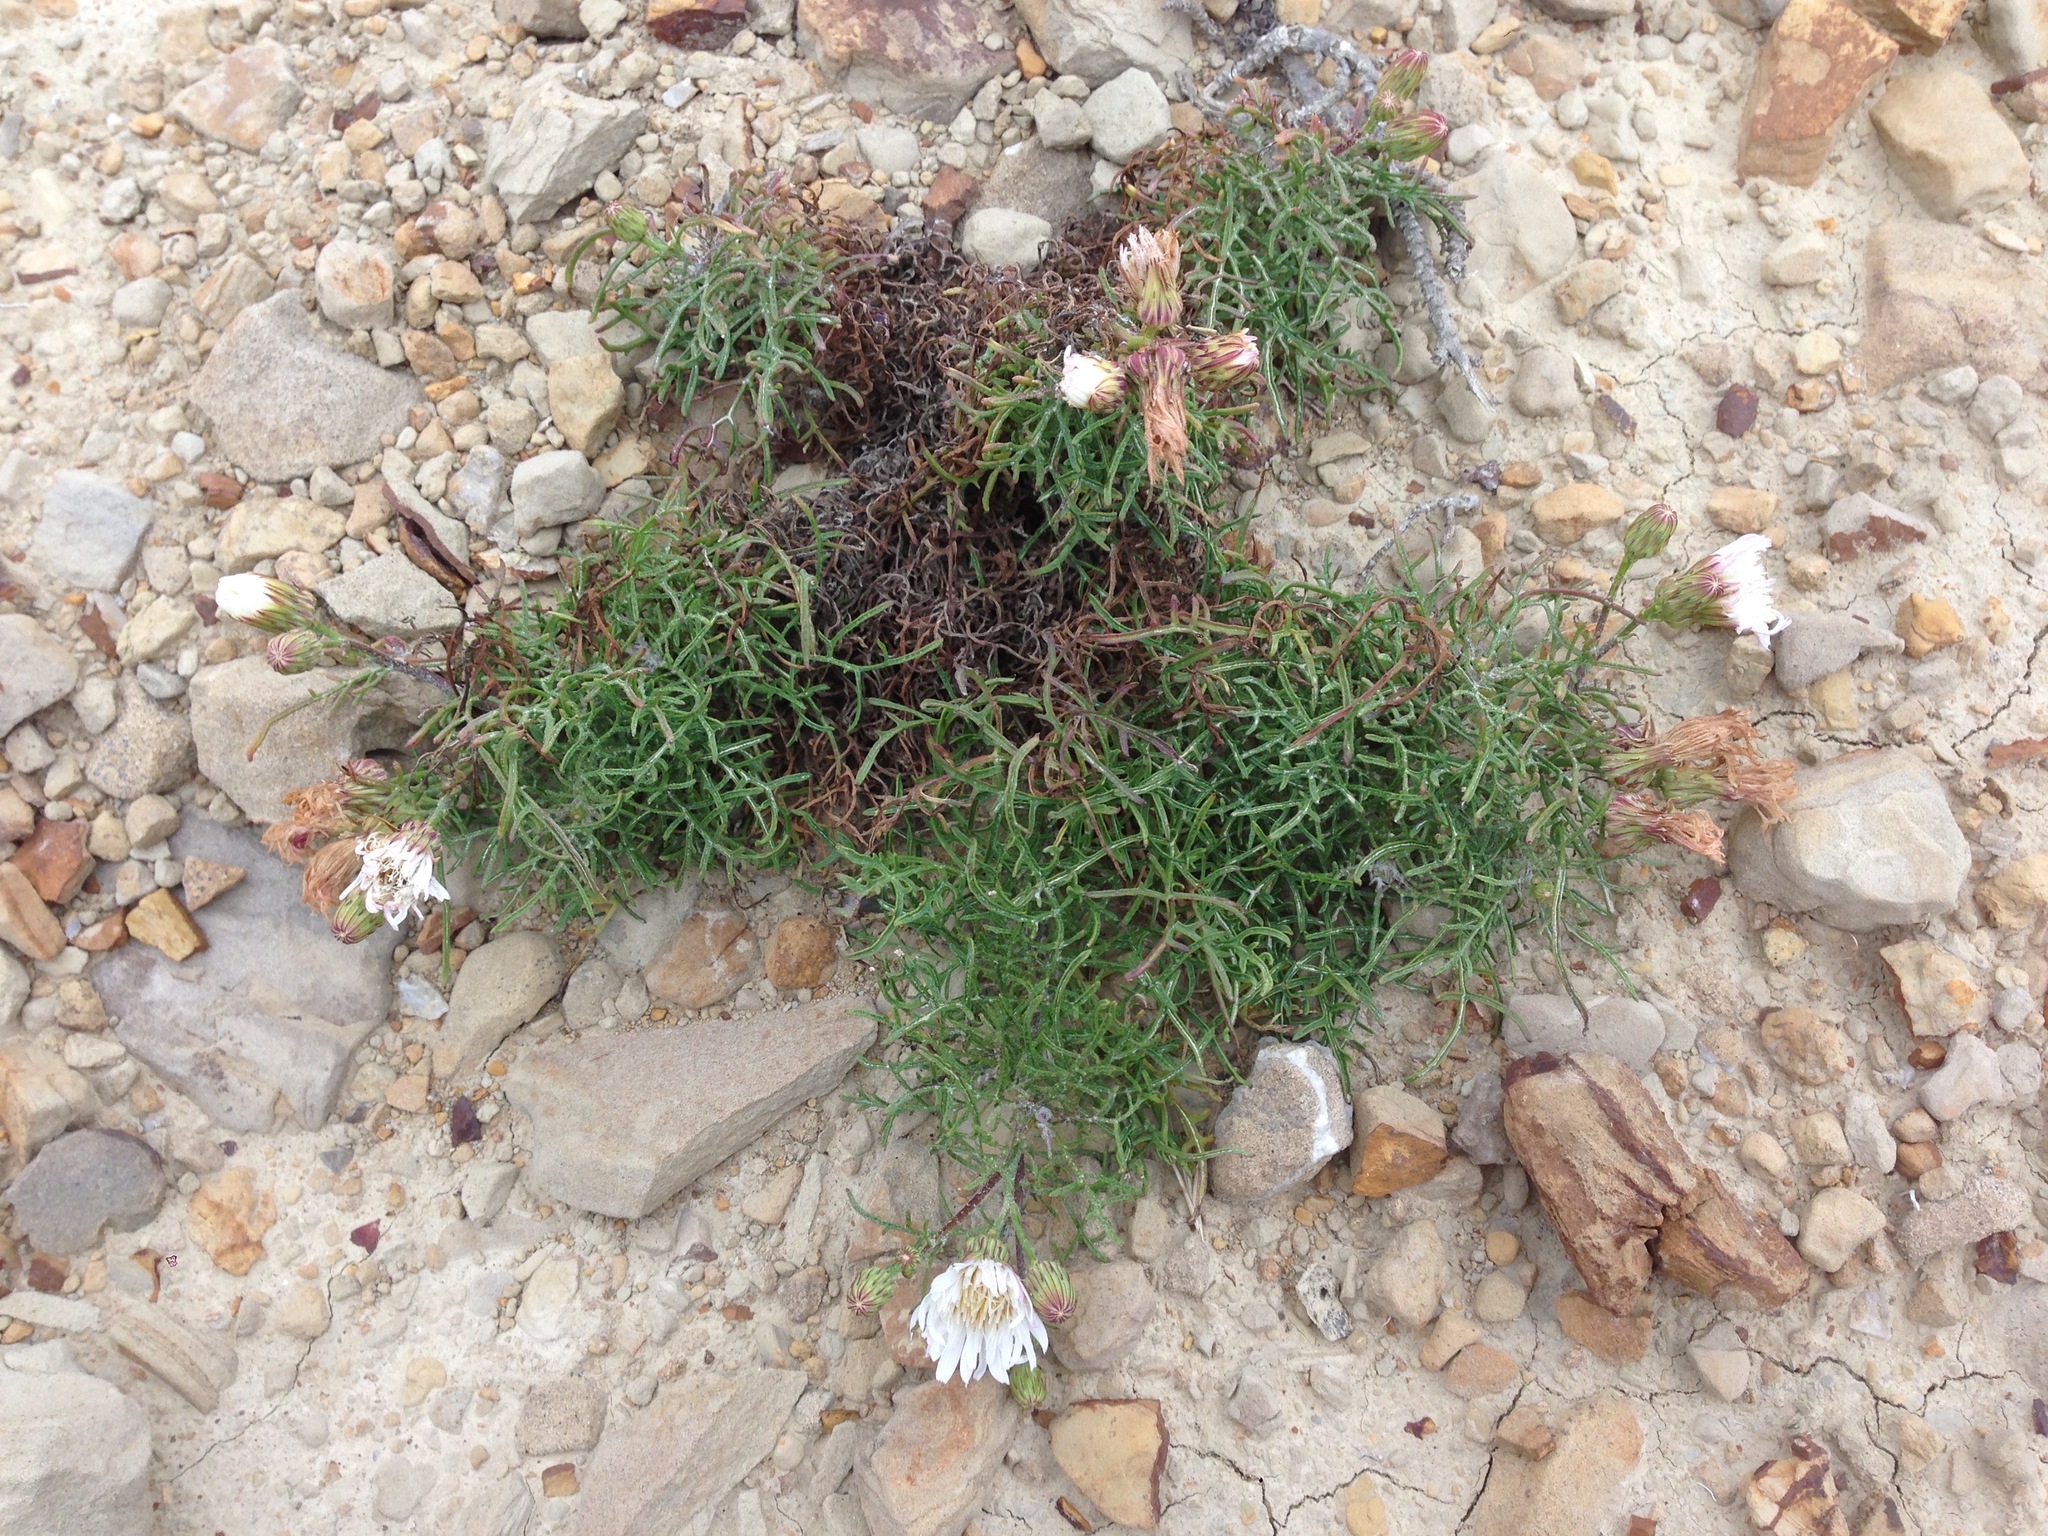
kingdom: Plantae
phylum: Tracheophyta
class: Magnoliopsida
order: Asterales
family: Asteraceae
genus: Malacothrix
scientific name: Malacothrix saxatilis
